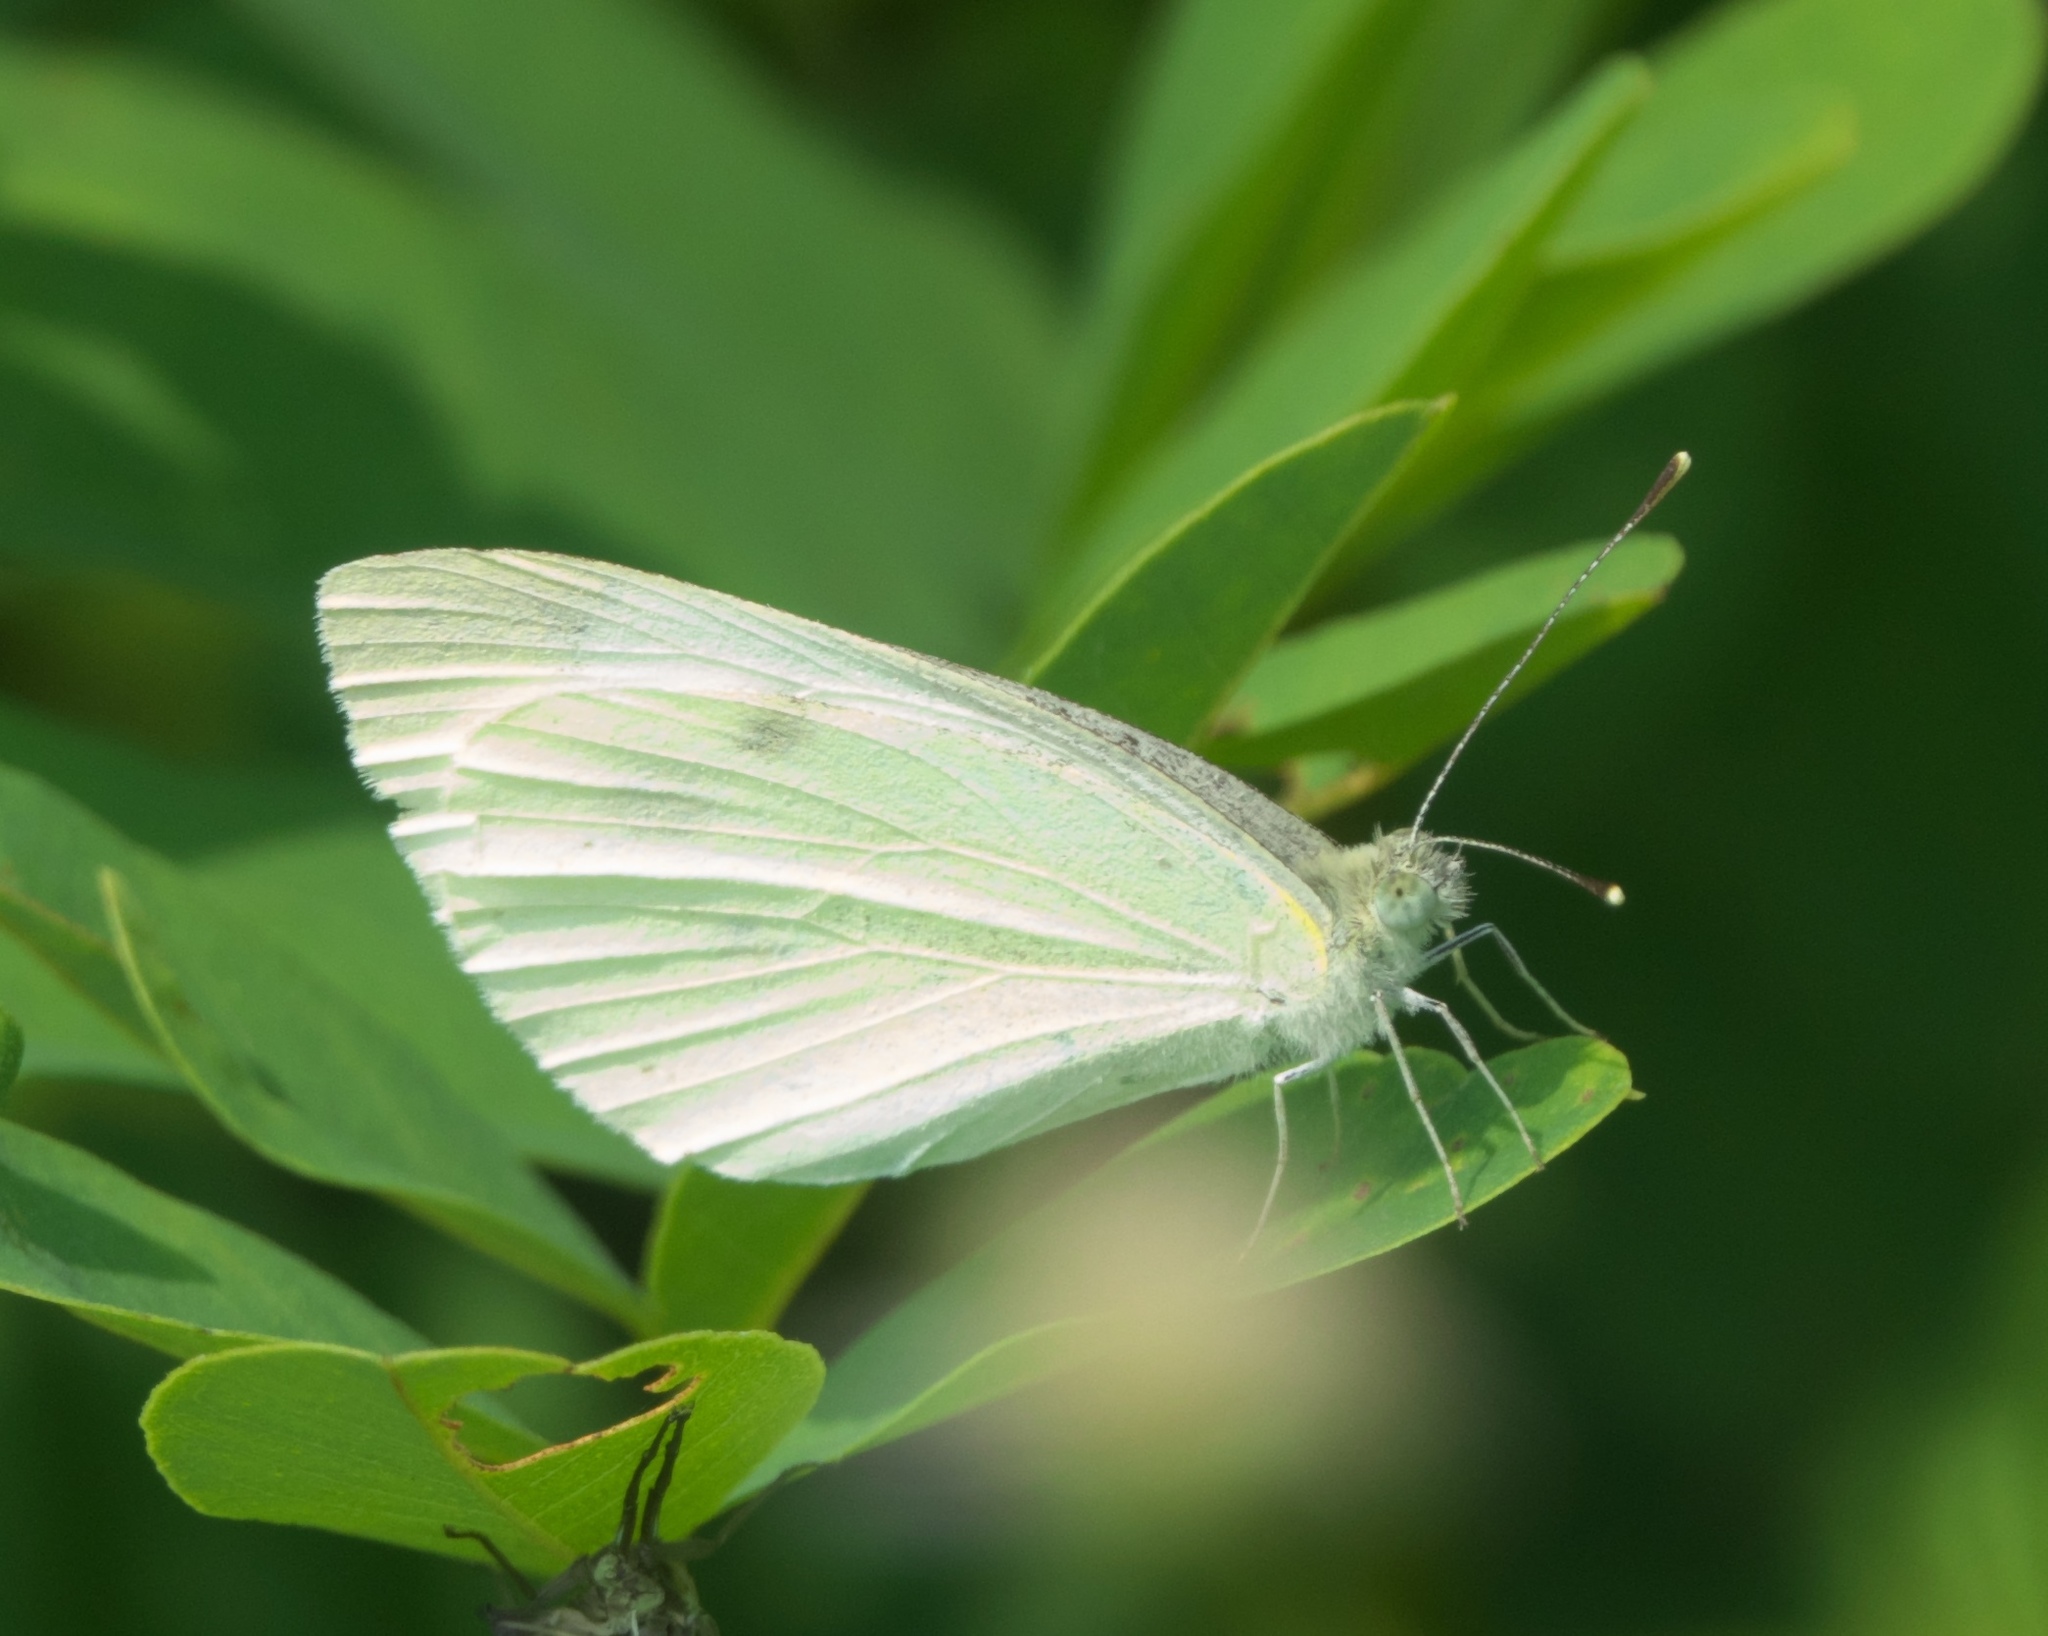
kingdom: Animalia
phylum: Arthropoda
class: Insecta
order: Lepidoptera
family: Pieridae
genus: Pieris
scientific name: Pieris rapae
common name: Small white
